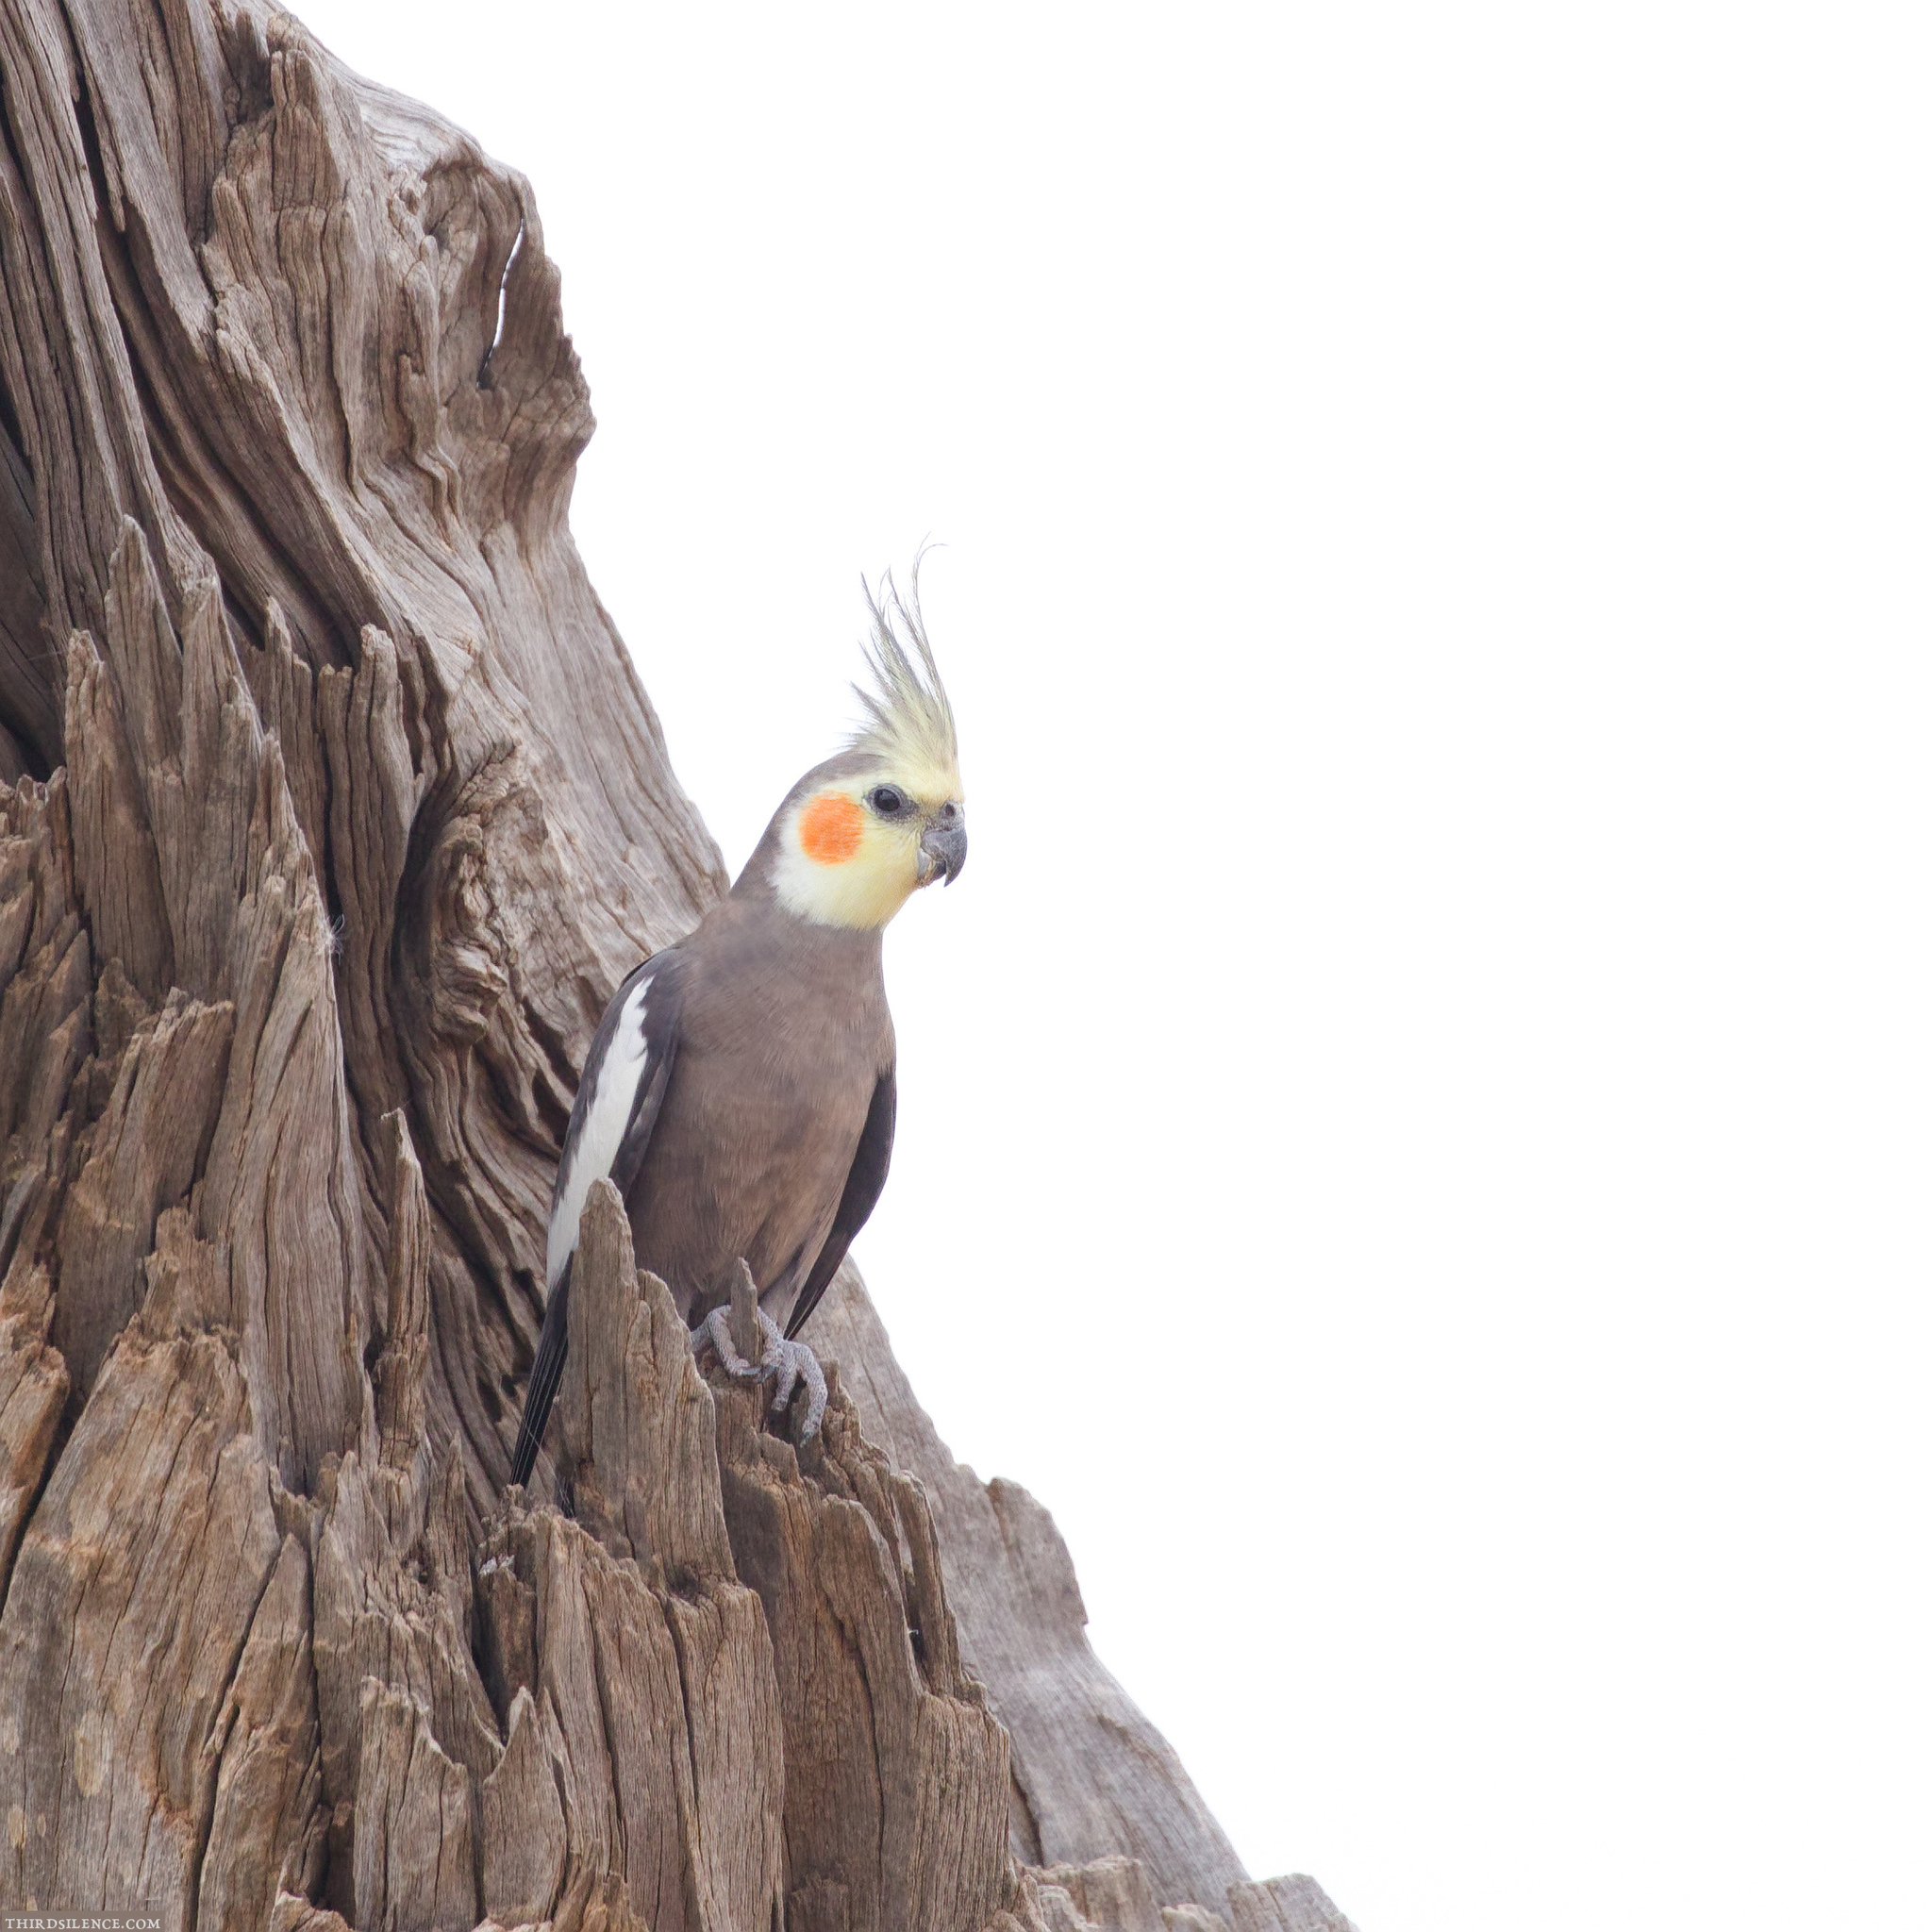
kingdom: Animalia
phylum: Chordata
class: Aves
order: Psittaciformes
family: Psittacidae
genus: Nymphicus
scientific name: Nymphicus hollandicus
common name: Cockatiel
